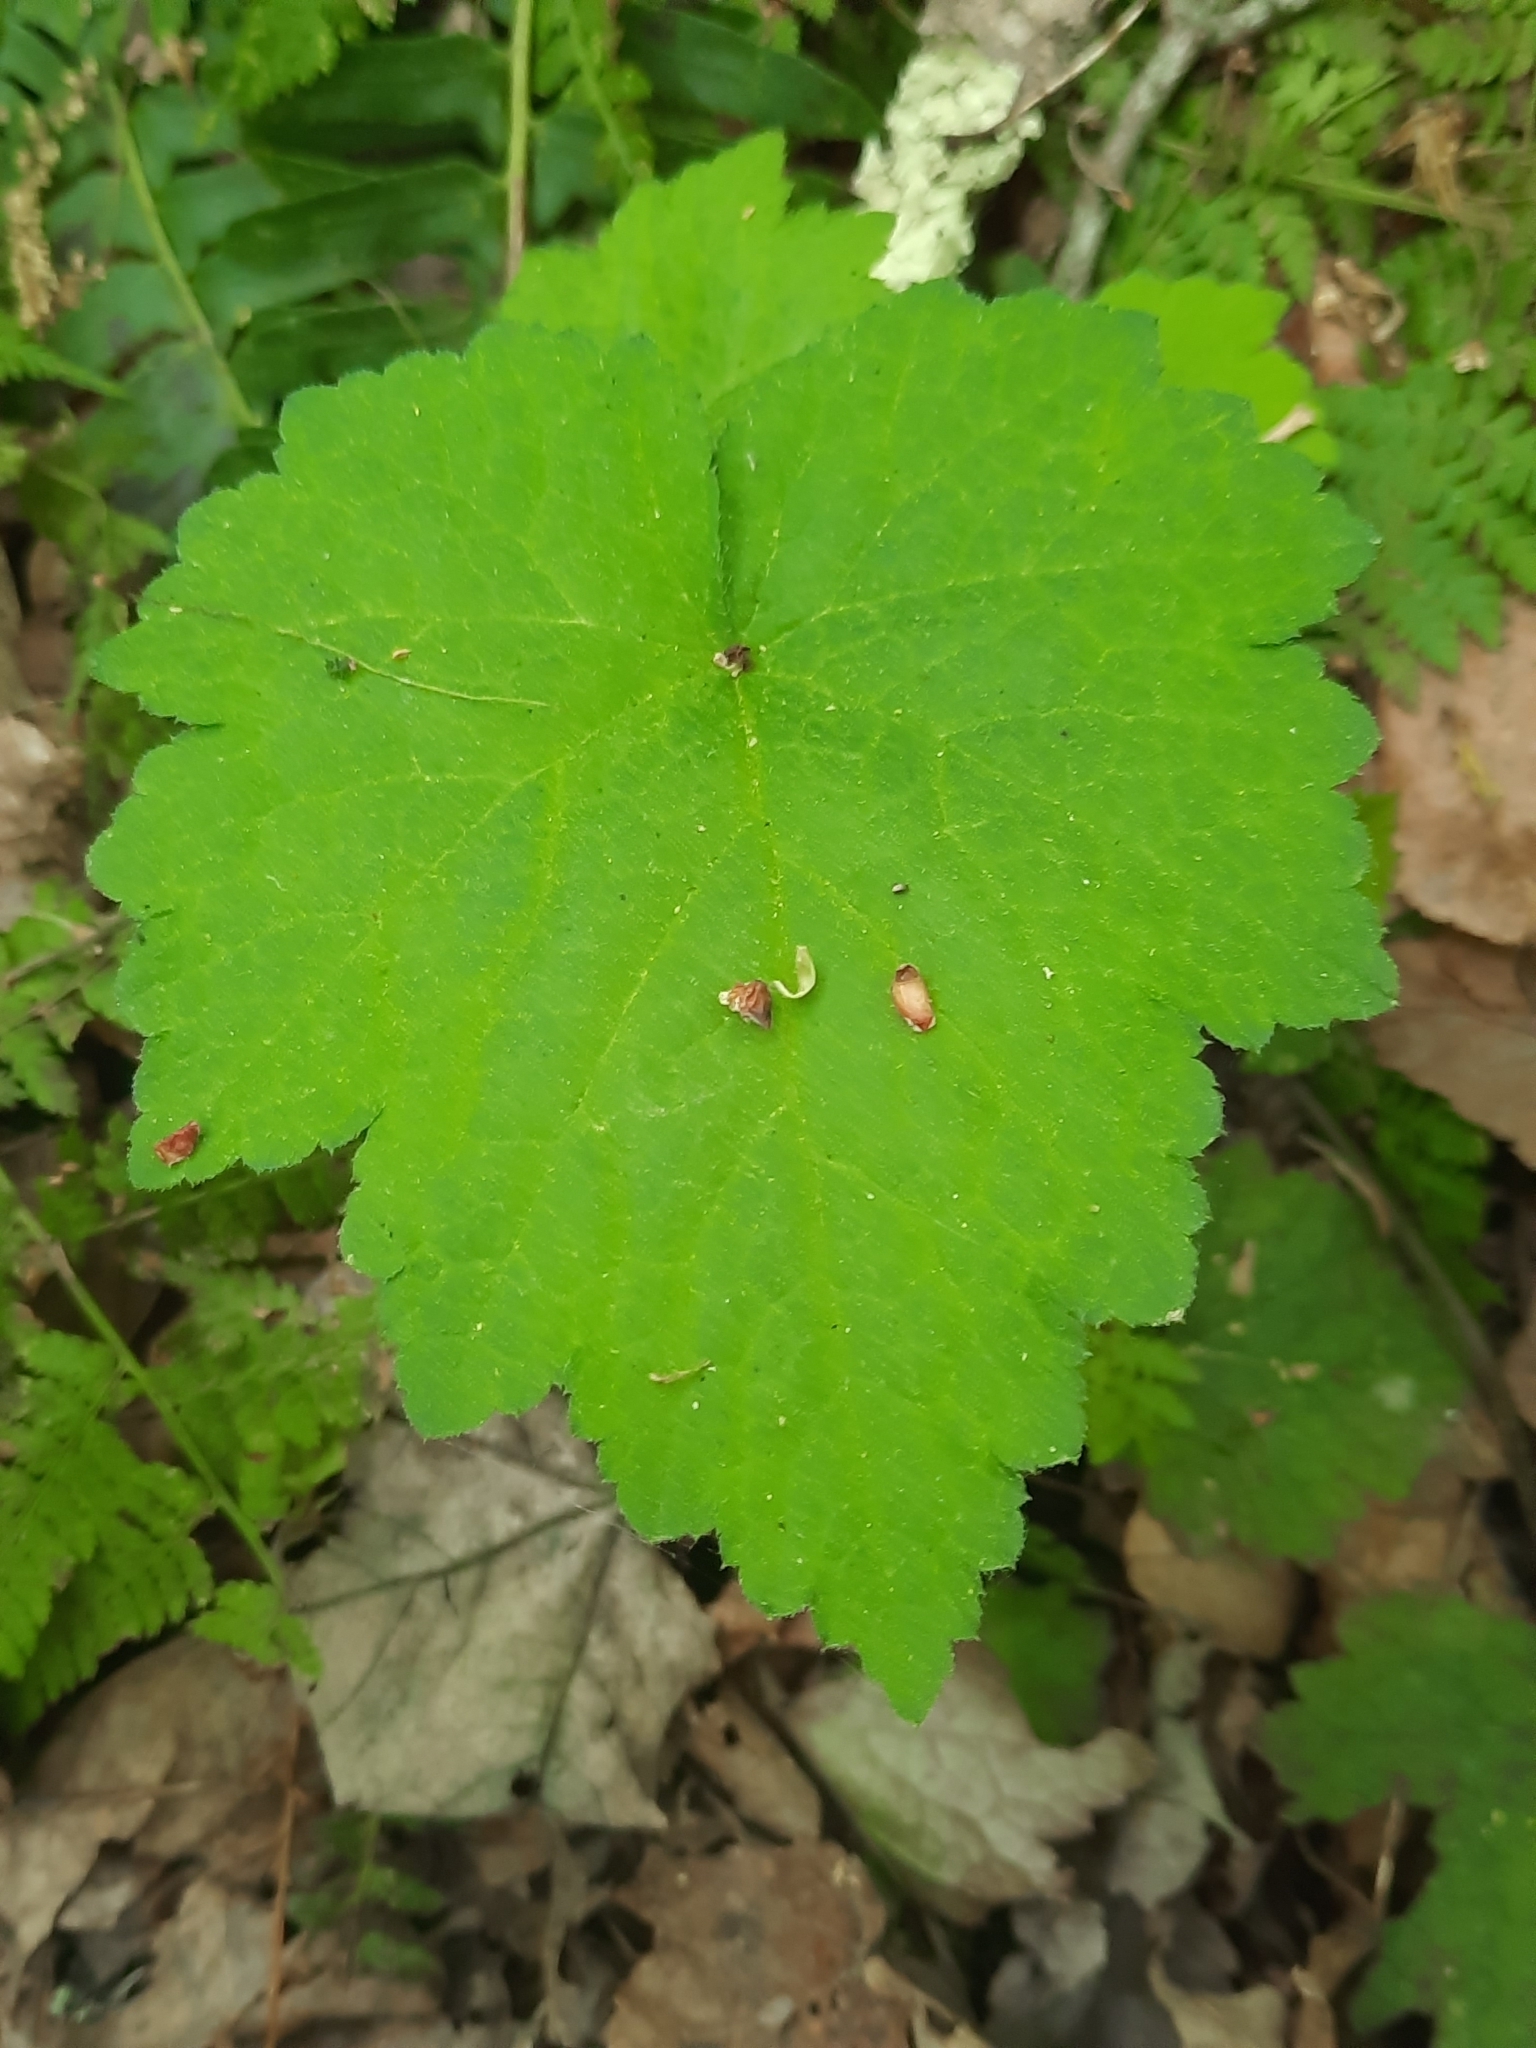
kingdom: Plantae
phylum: Tracheophyta
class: Magnoliopsida
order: Saxifragales
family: Saxifragaceae
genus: Tiarella
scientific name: Tiarella stolonifera
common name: Stoloniferous foamflower
